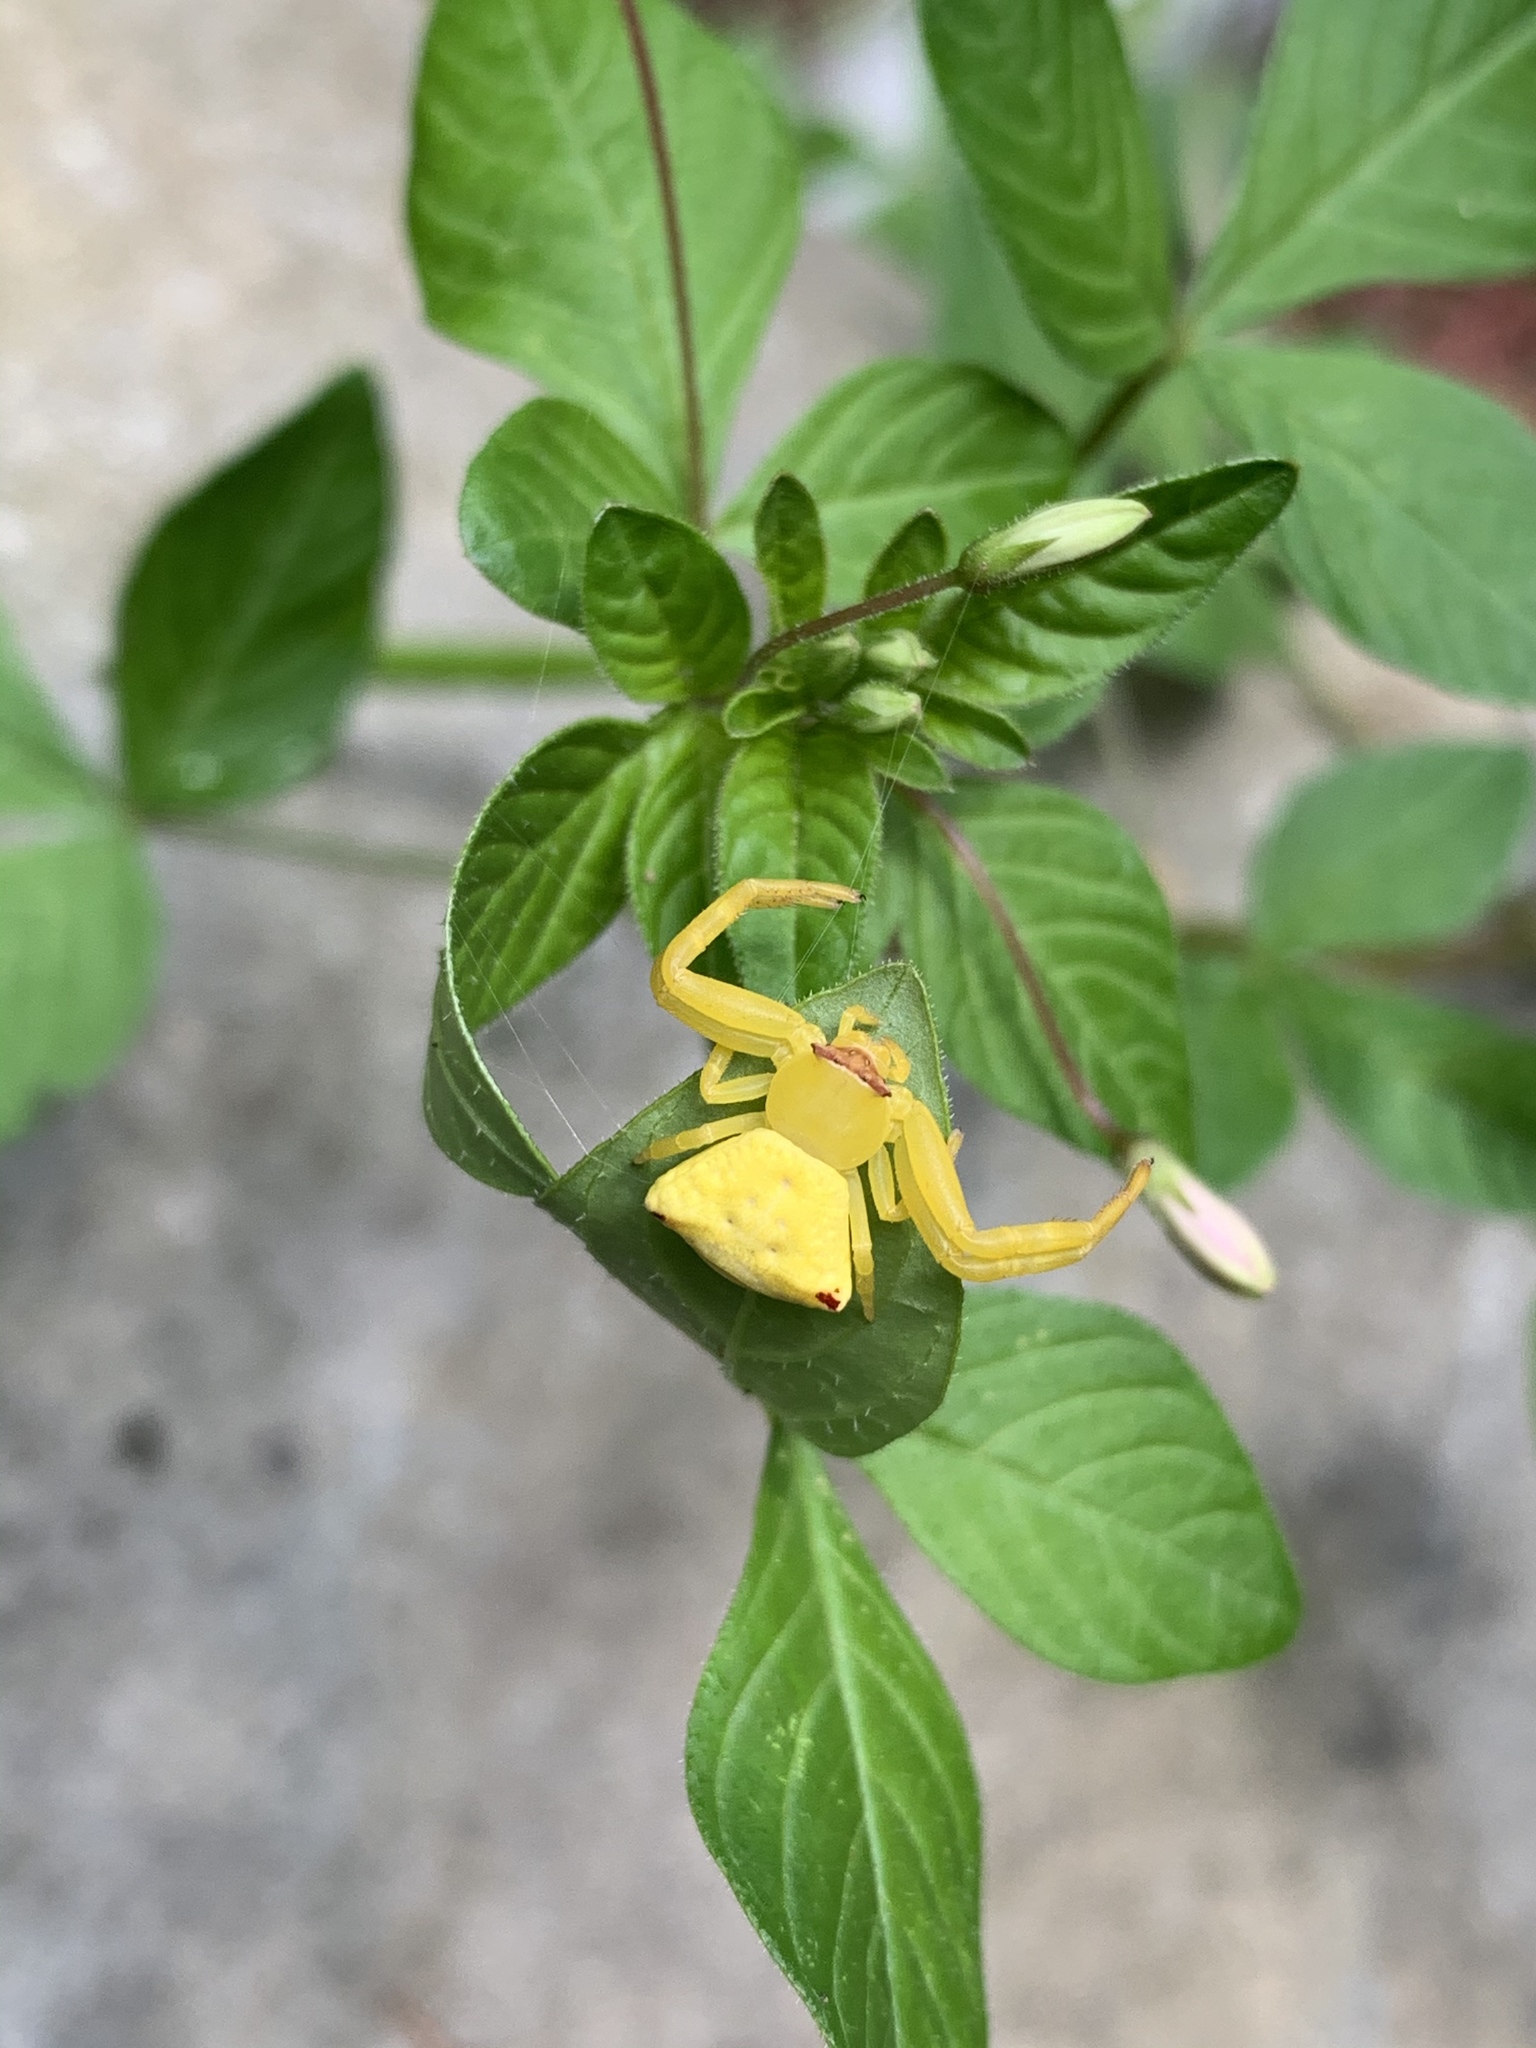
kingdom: Animalia
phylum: Arthropoda
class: Arachnida
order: Araneae
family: Thomisidae
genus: Thomisus
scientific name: Thomisus labefactus
